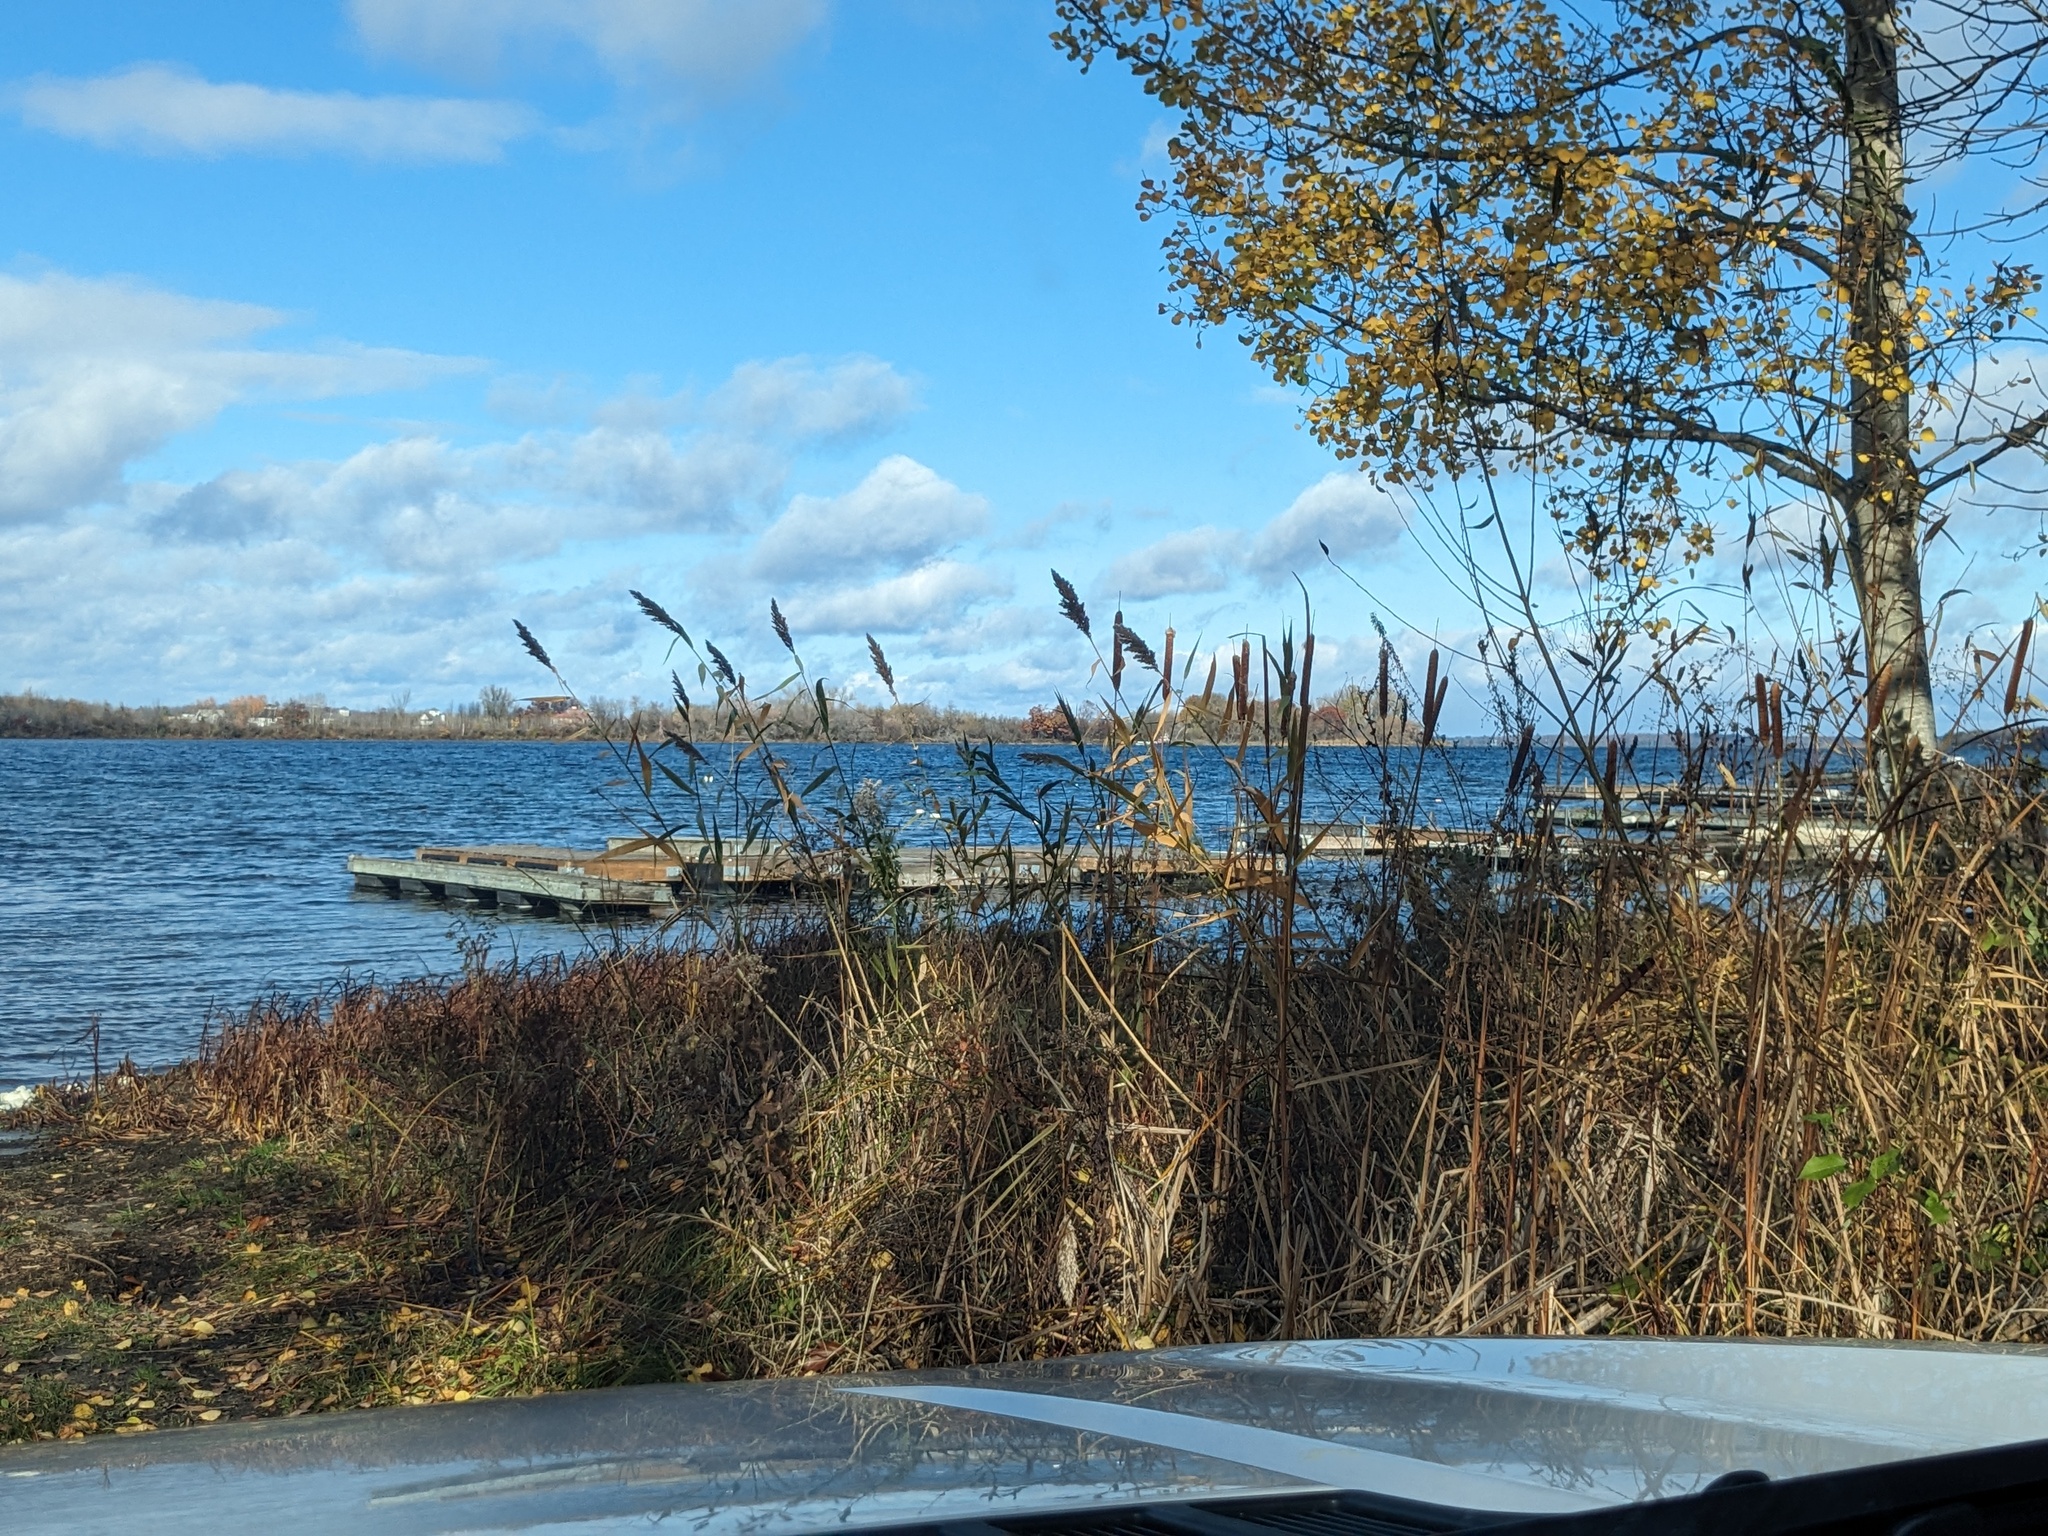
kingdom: Plantae
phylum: Tracheophyta
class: Liliopsida
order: Poales
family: Poaceae
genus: Phragmites
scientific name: Phragmites australis
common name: Common reed
